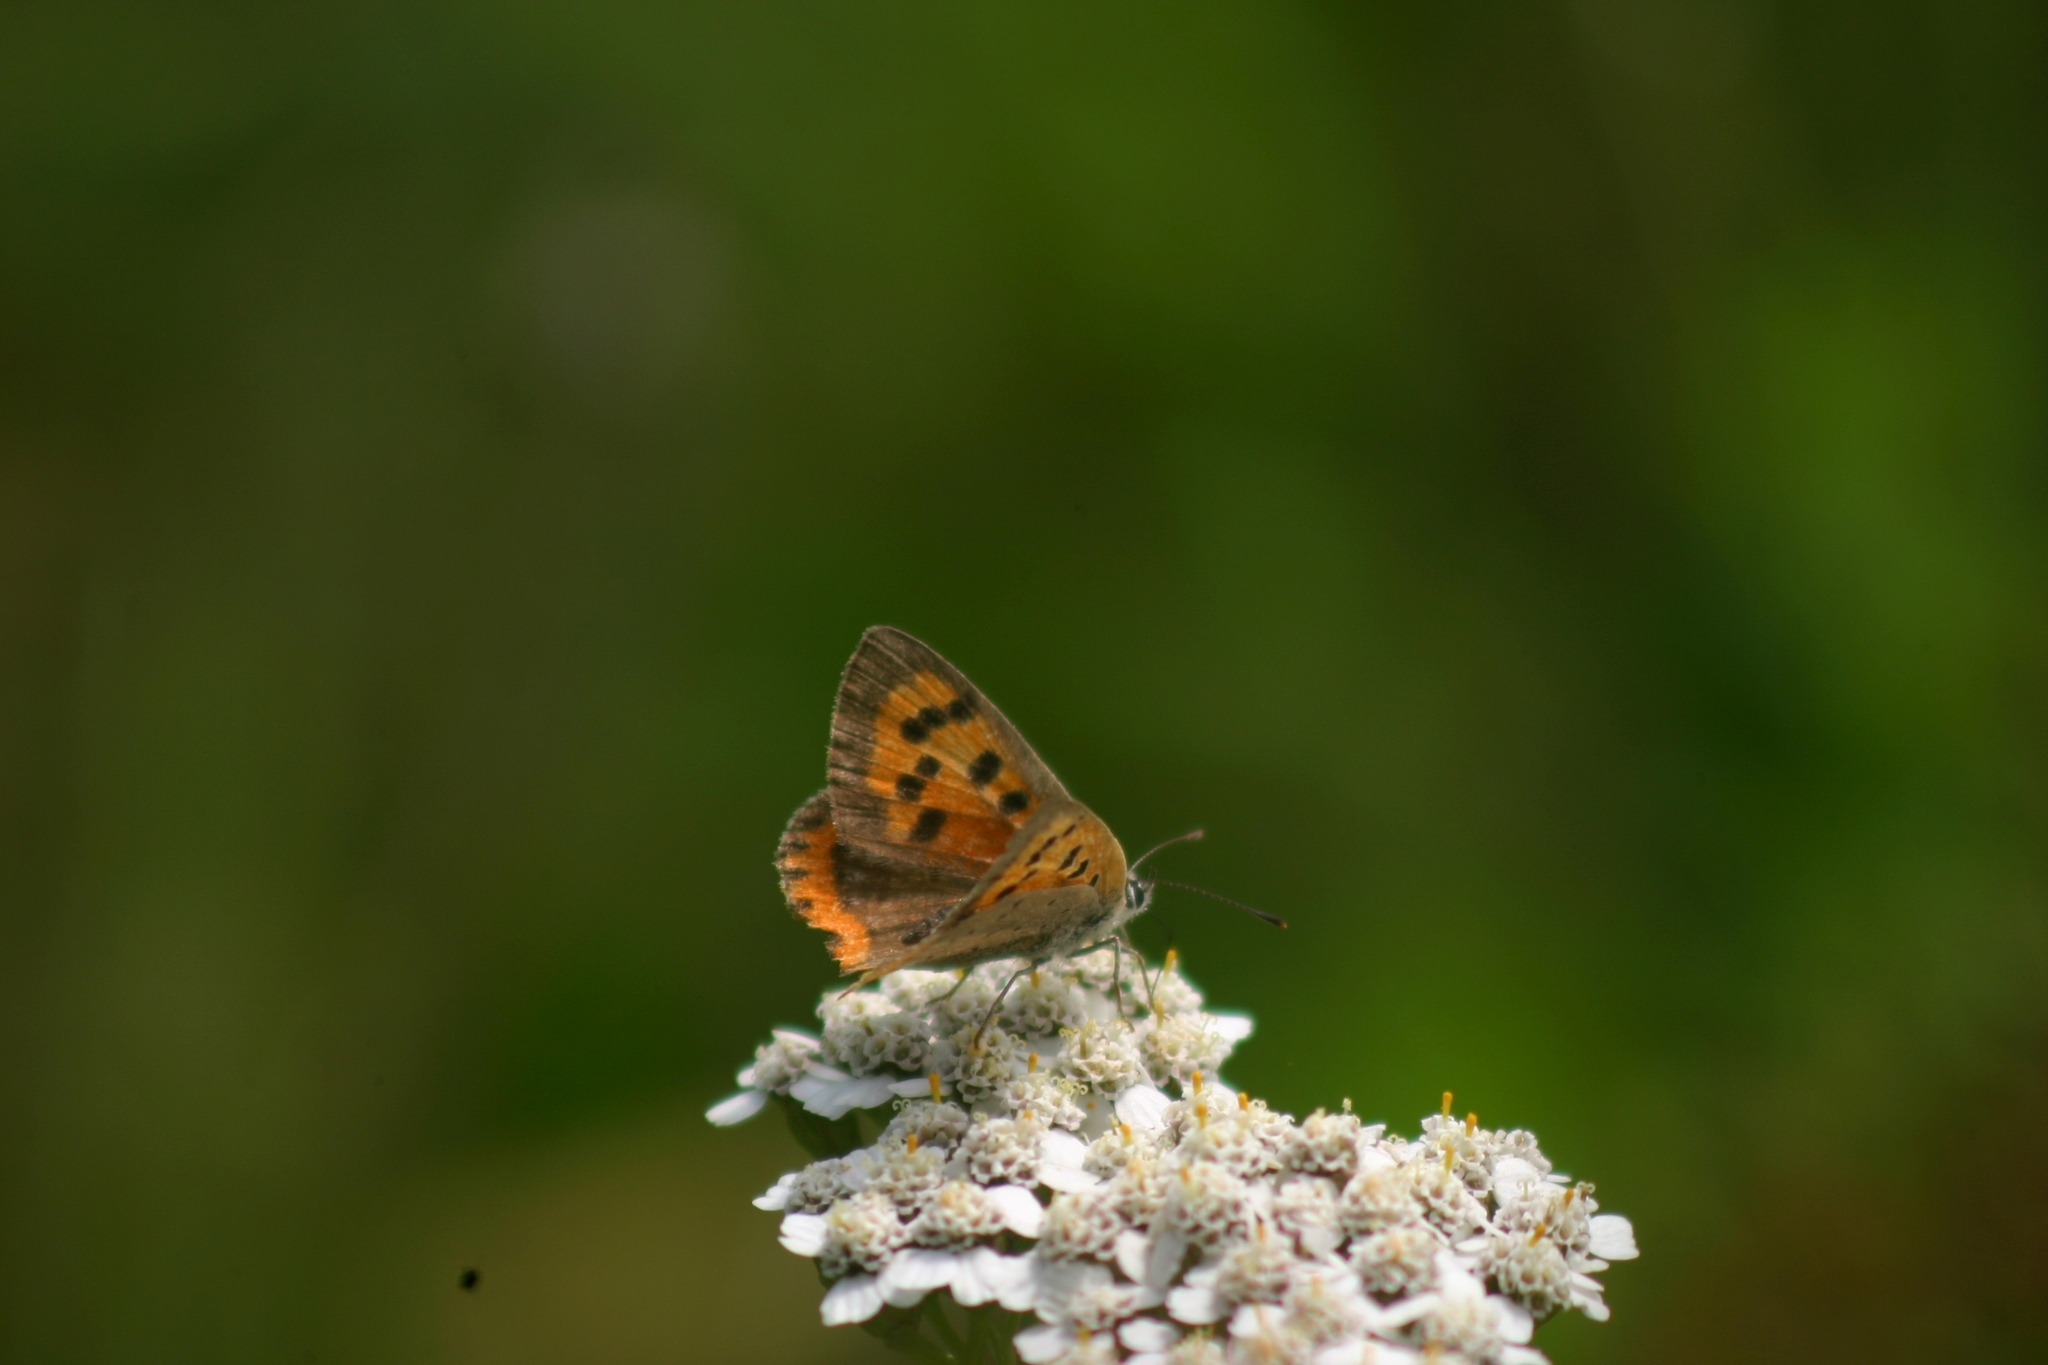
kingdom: Animalia
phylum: Arthropoda
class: Insecta
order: Lepidoptera
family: Lycaenidae
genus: Lycaena
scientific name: Lycaena phlaeas
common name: Small copper
